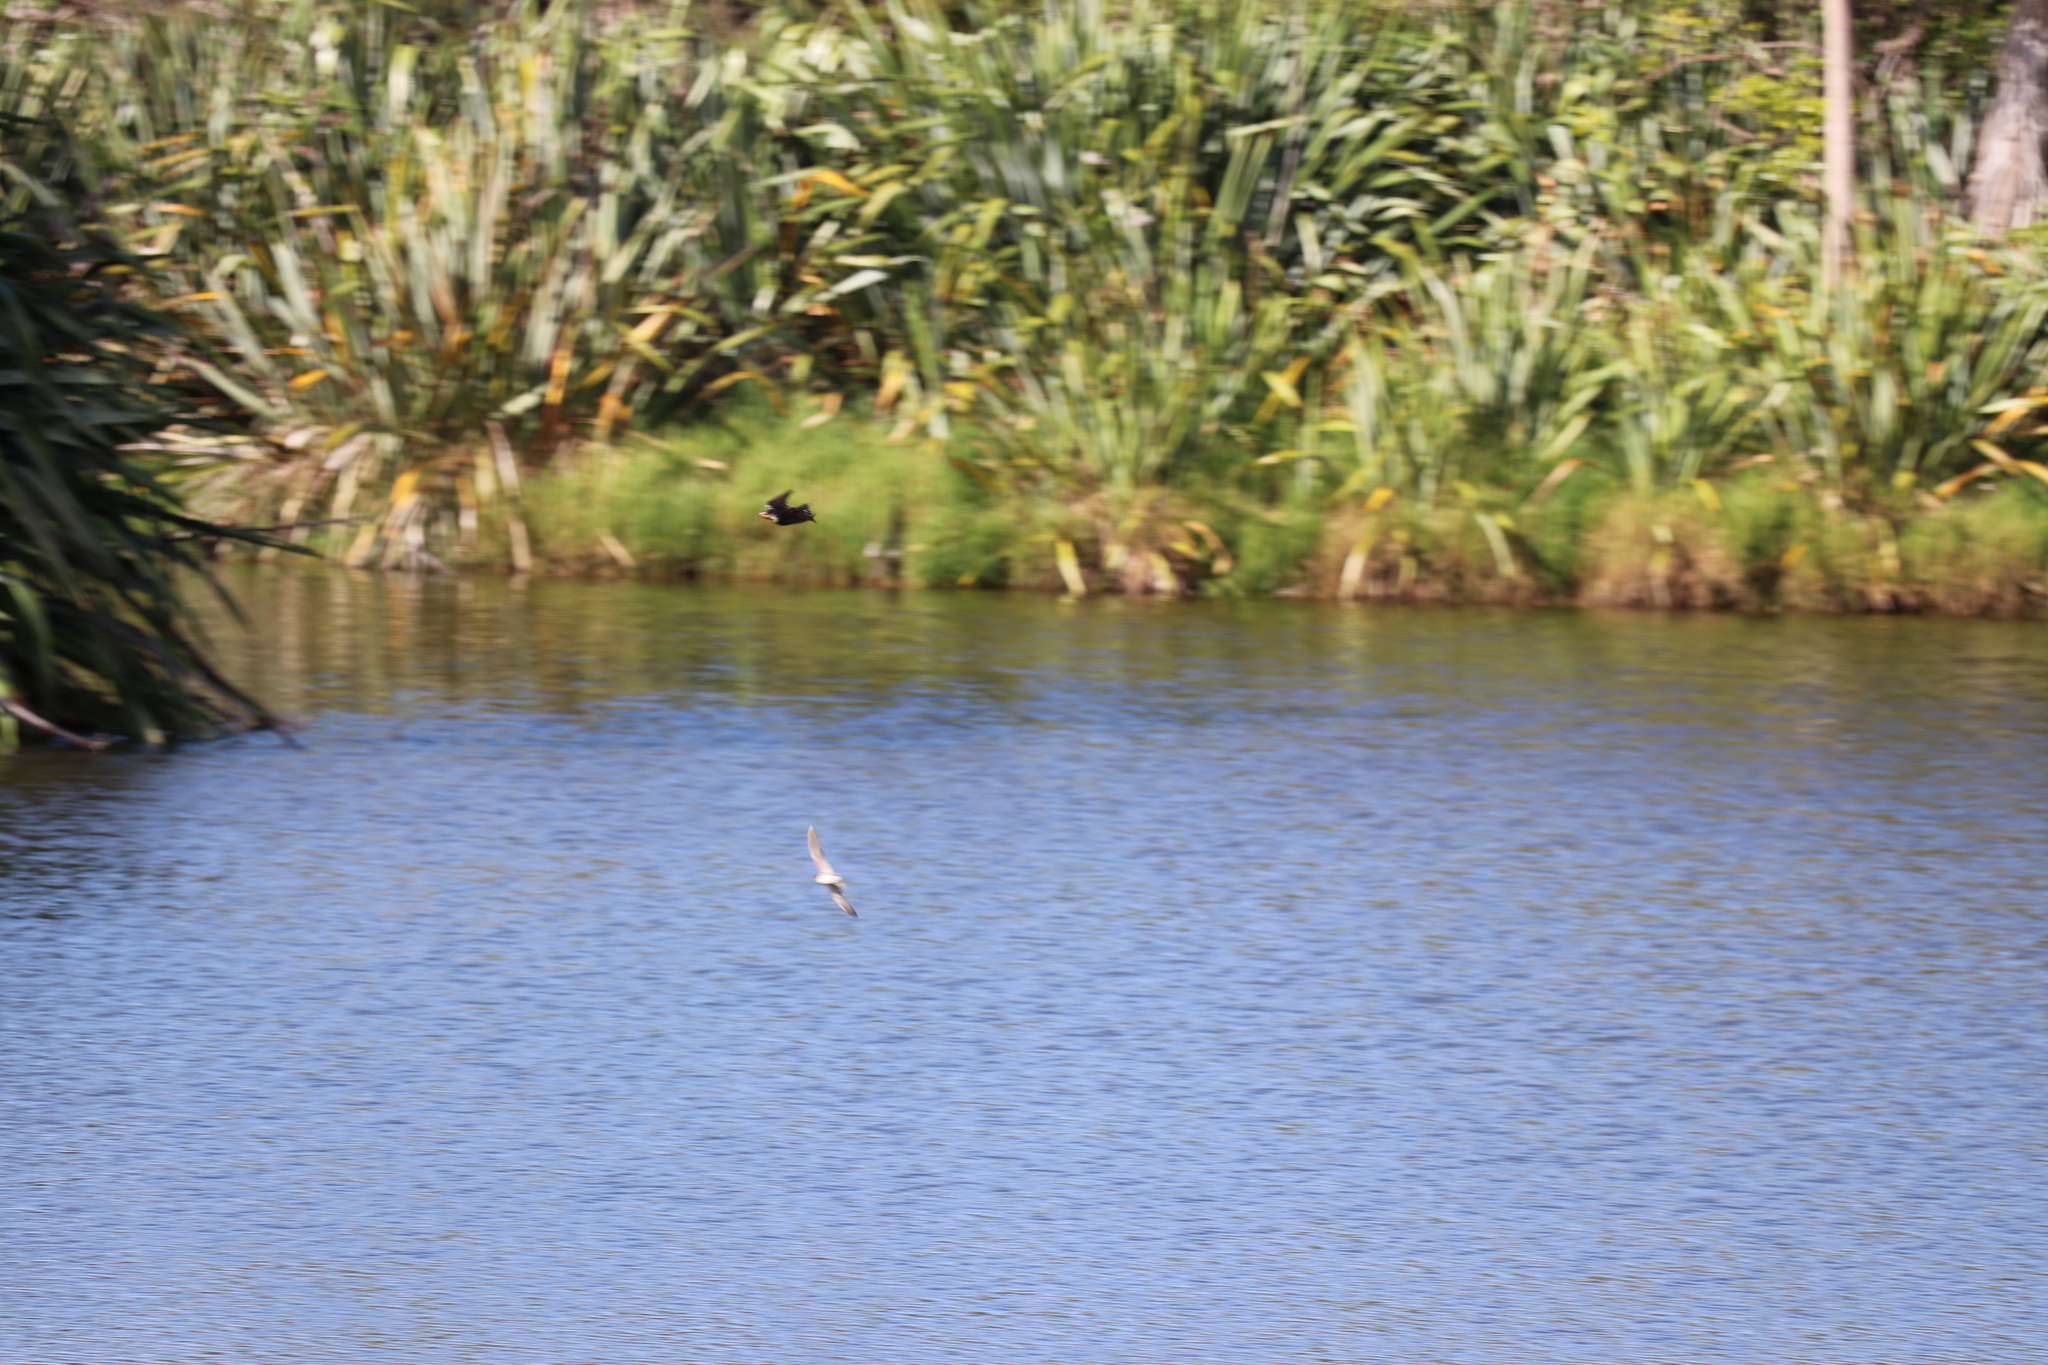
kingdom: Animalia
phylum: Chordata
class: Aves
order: Passeriformes
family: Hirundinidae
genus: Hirundo
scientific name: Hirundo neoxena
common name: Welcome swallow
